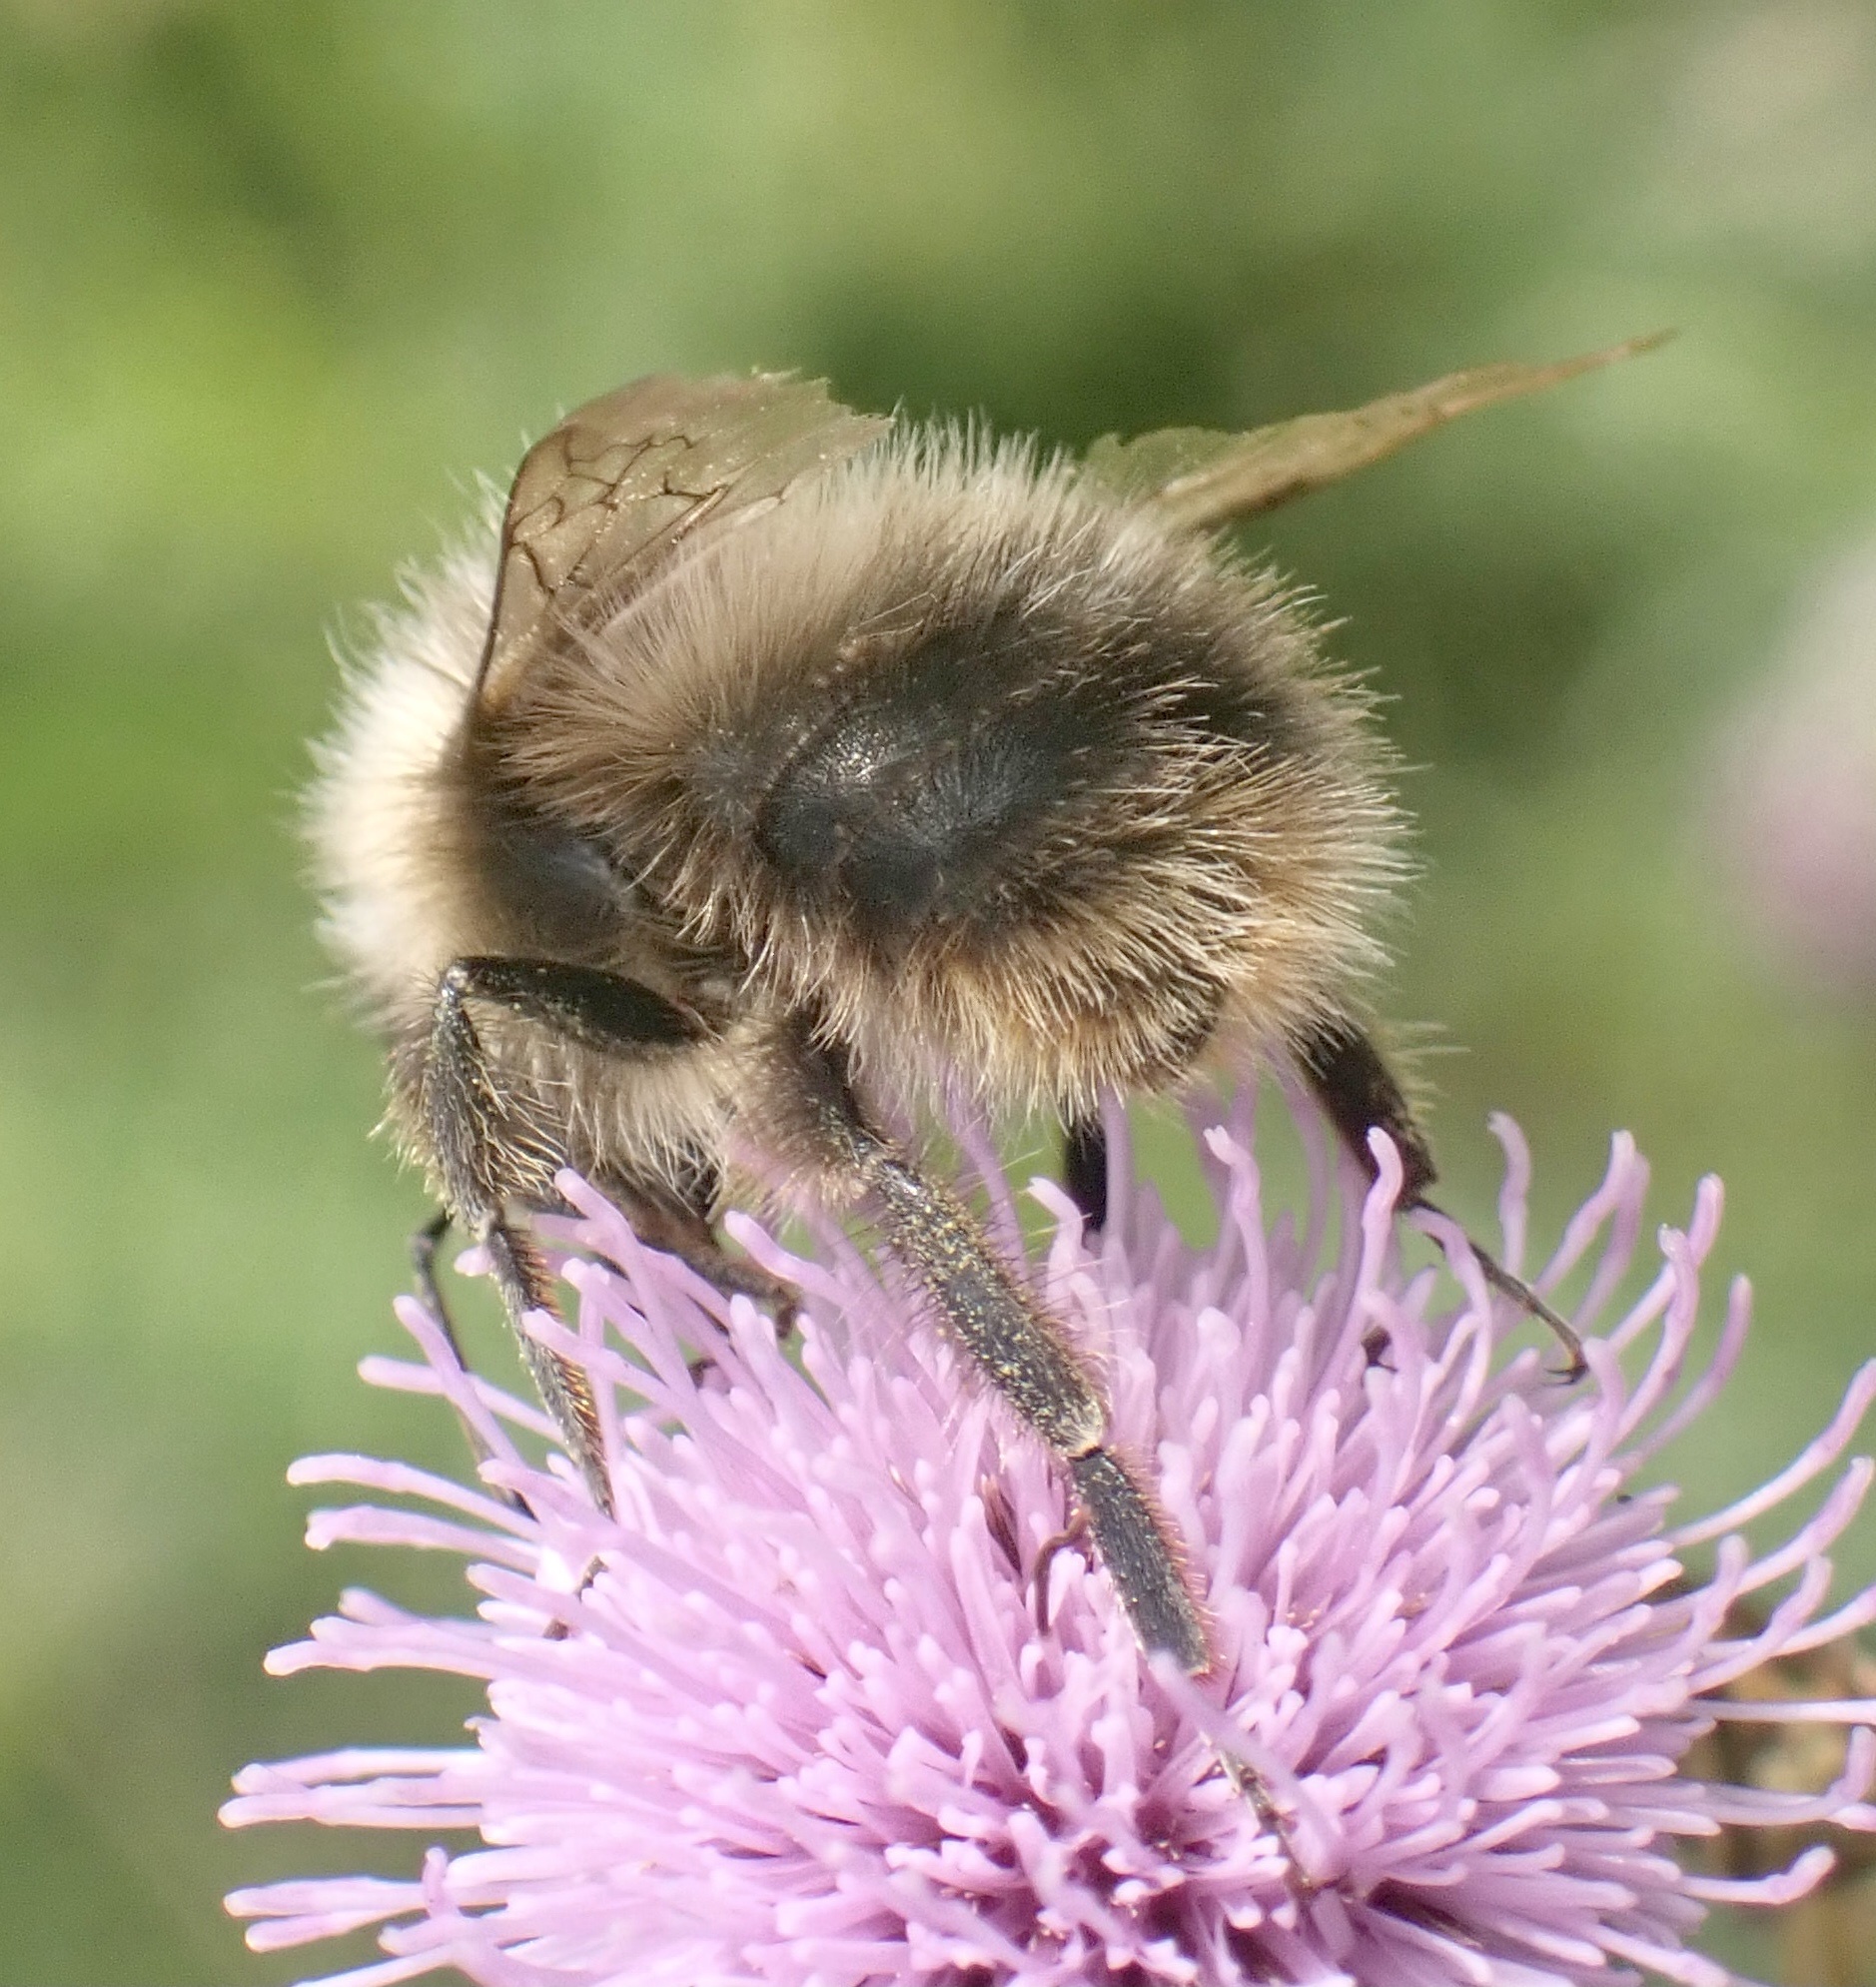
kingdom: Animalia
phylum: Arthropoda
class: Insecta
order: Hymenoptera
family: Apidae
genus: Bombus
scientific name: Bombus pratorum
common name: Early humble-bee
